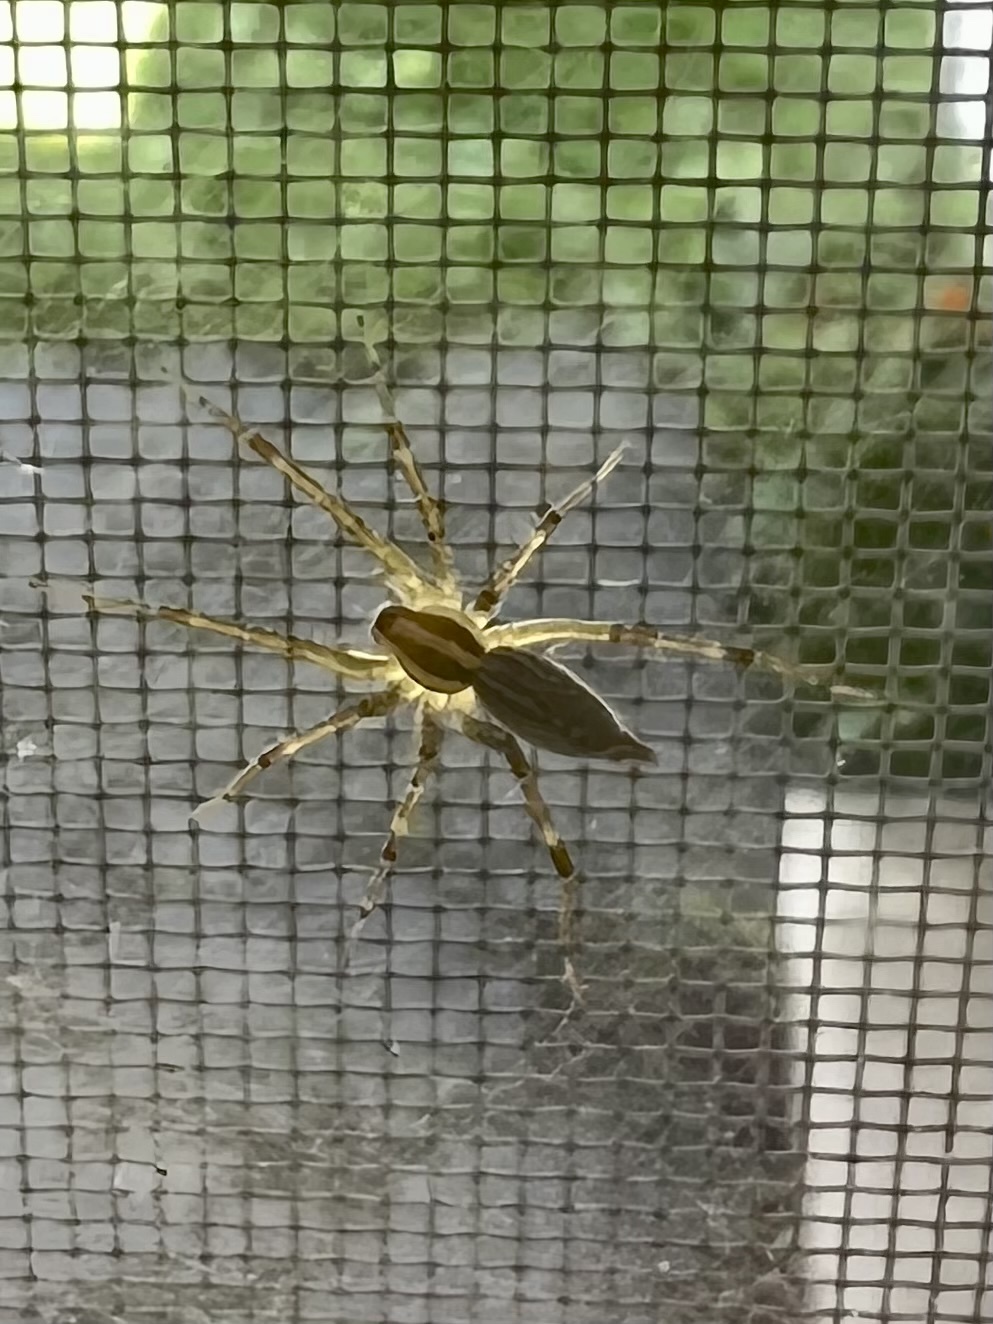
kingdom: Animalia
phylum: Arthropoda
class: Arachnida
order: Araneae
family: Agelenidae
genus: Agelenopsis
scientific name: Agelenopsis
